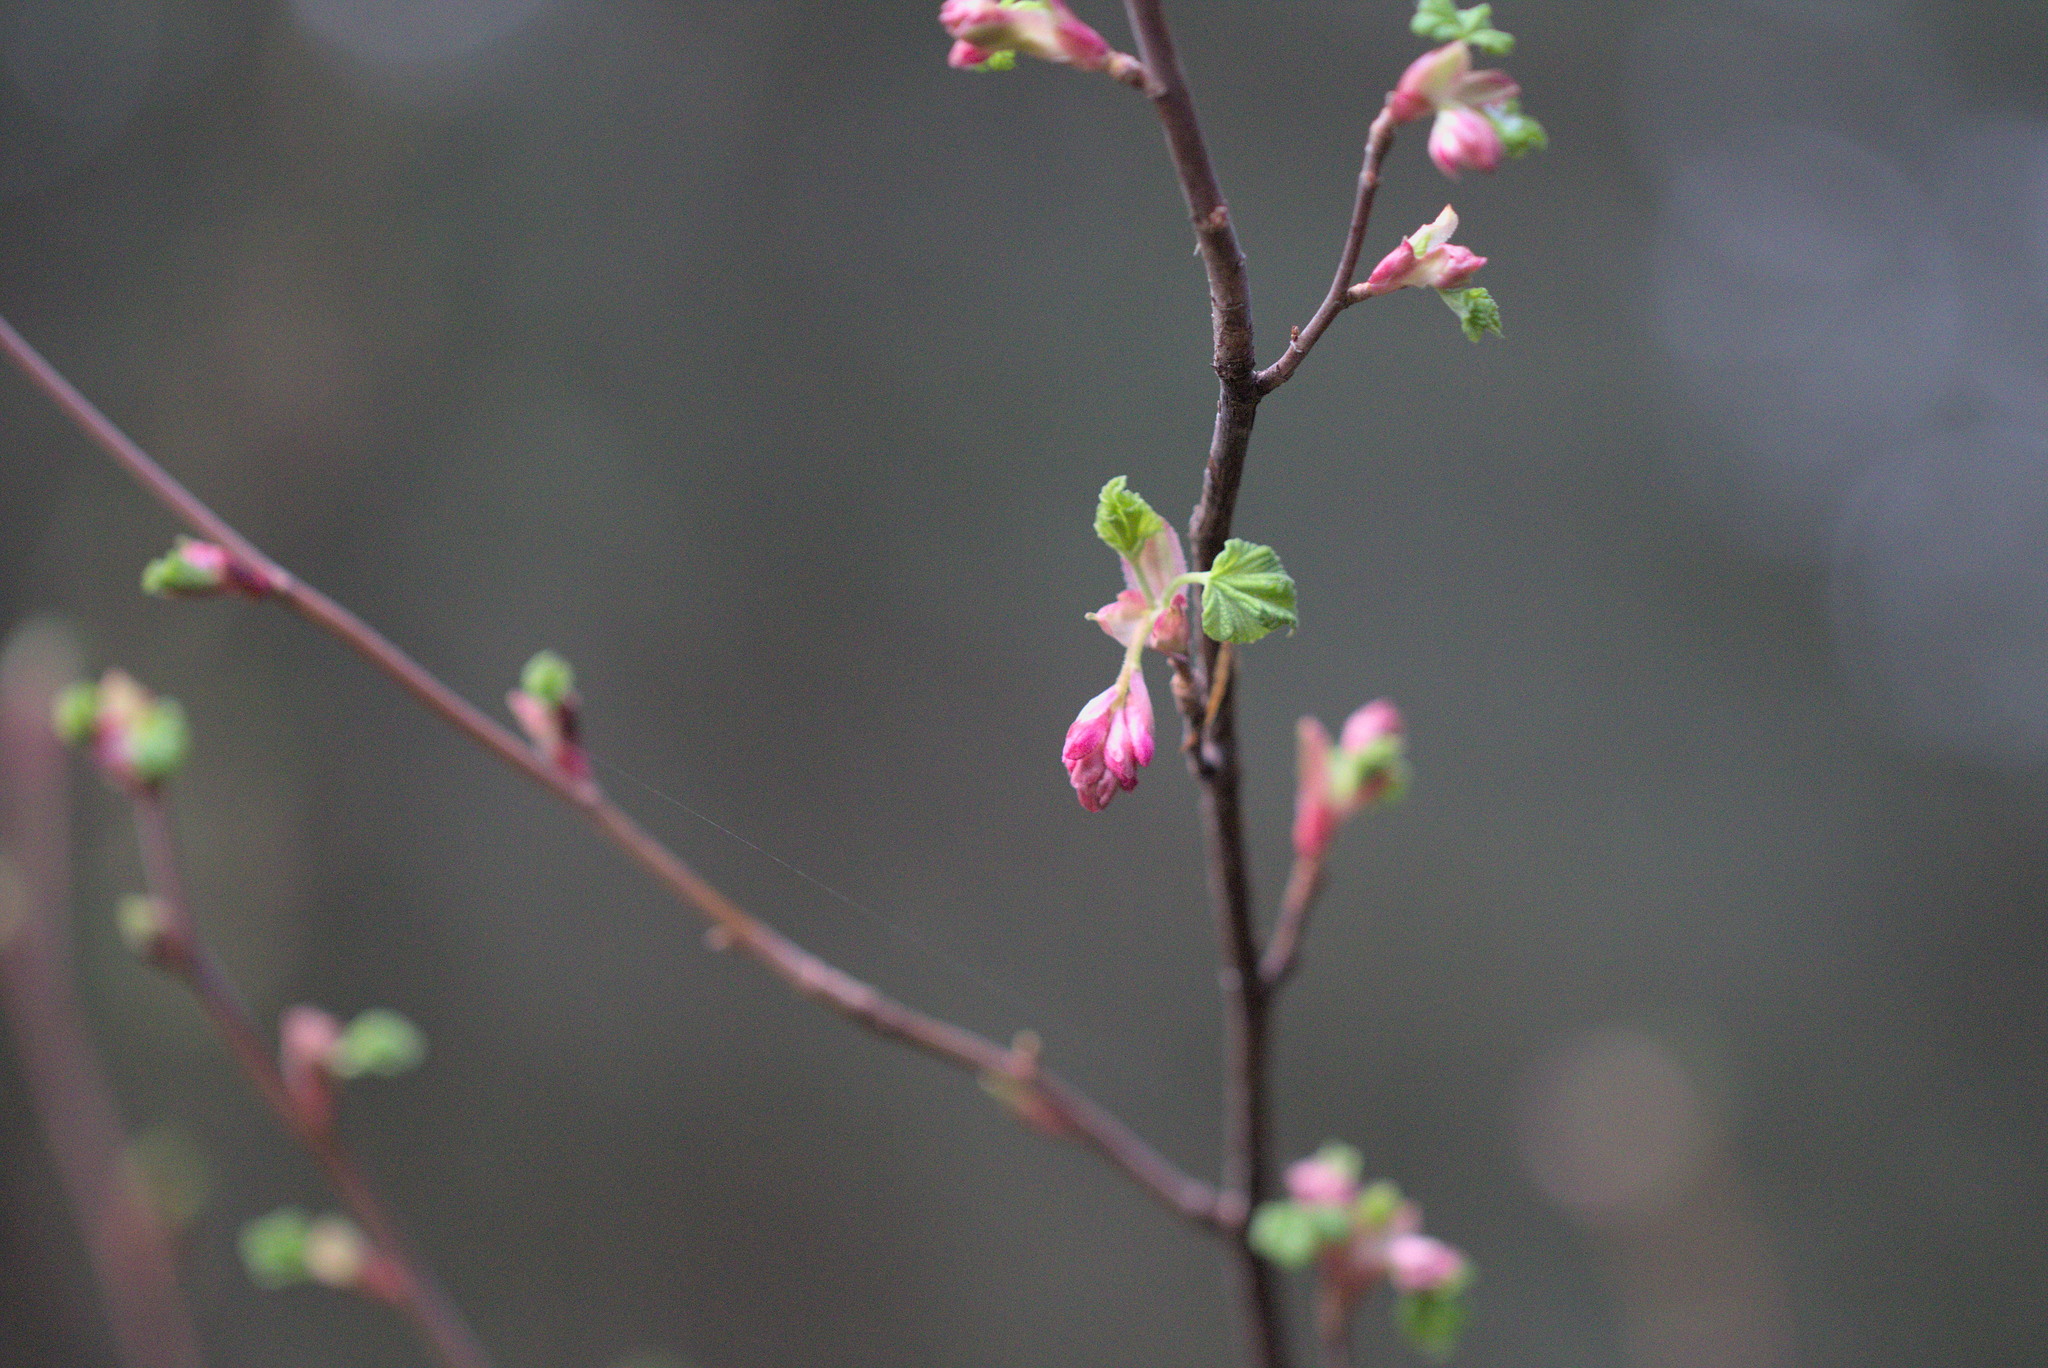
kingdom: Plantae
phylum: Tracheophyta
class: Magnoliopsida
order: Saxifragales
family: Grossulariaceae
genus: Ribes
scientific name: Ribes sanguineum
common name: Flowering currant
